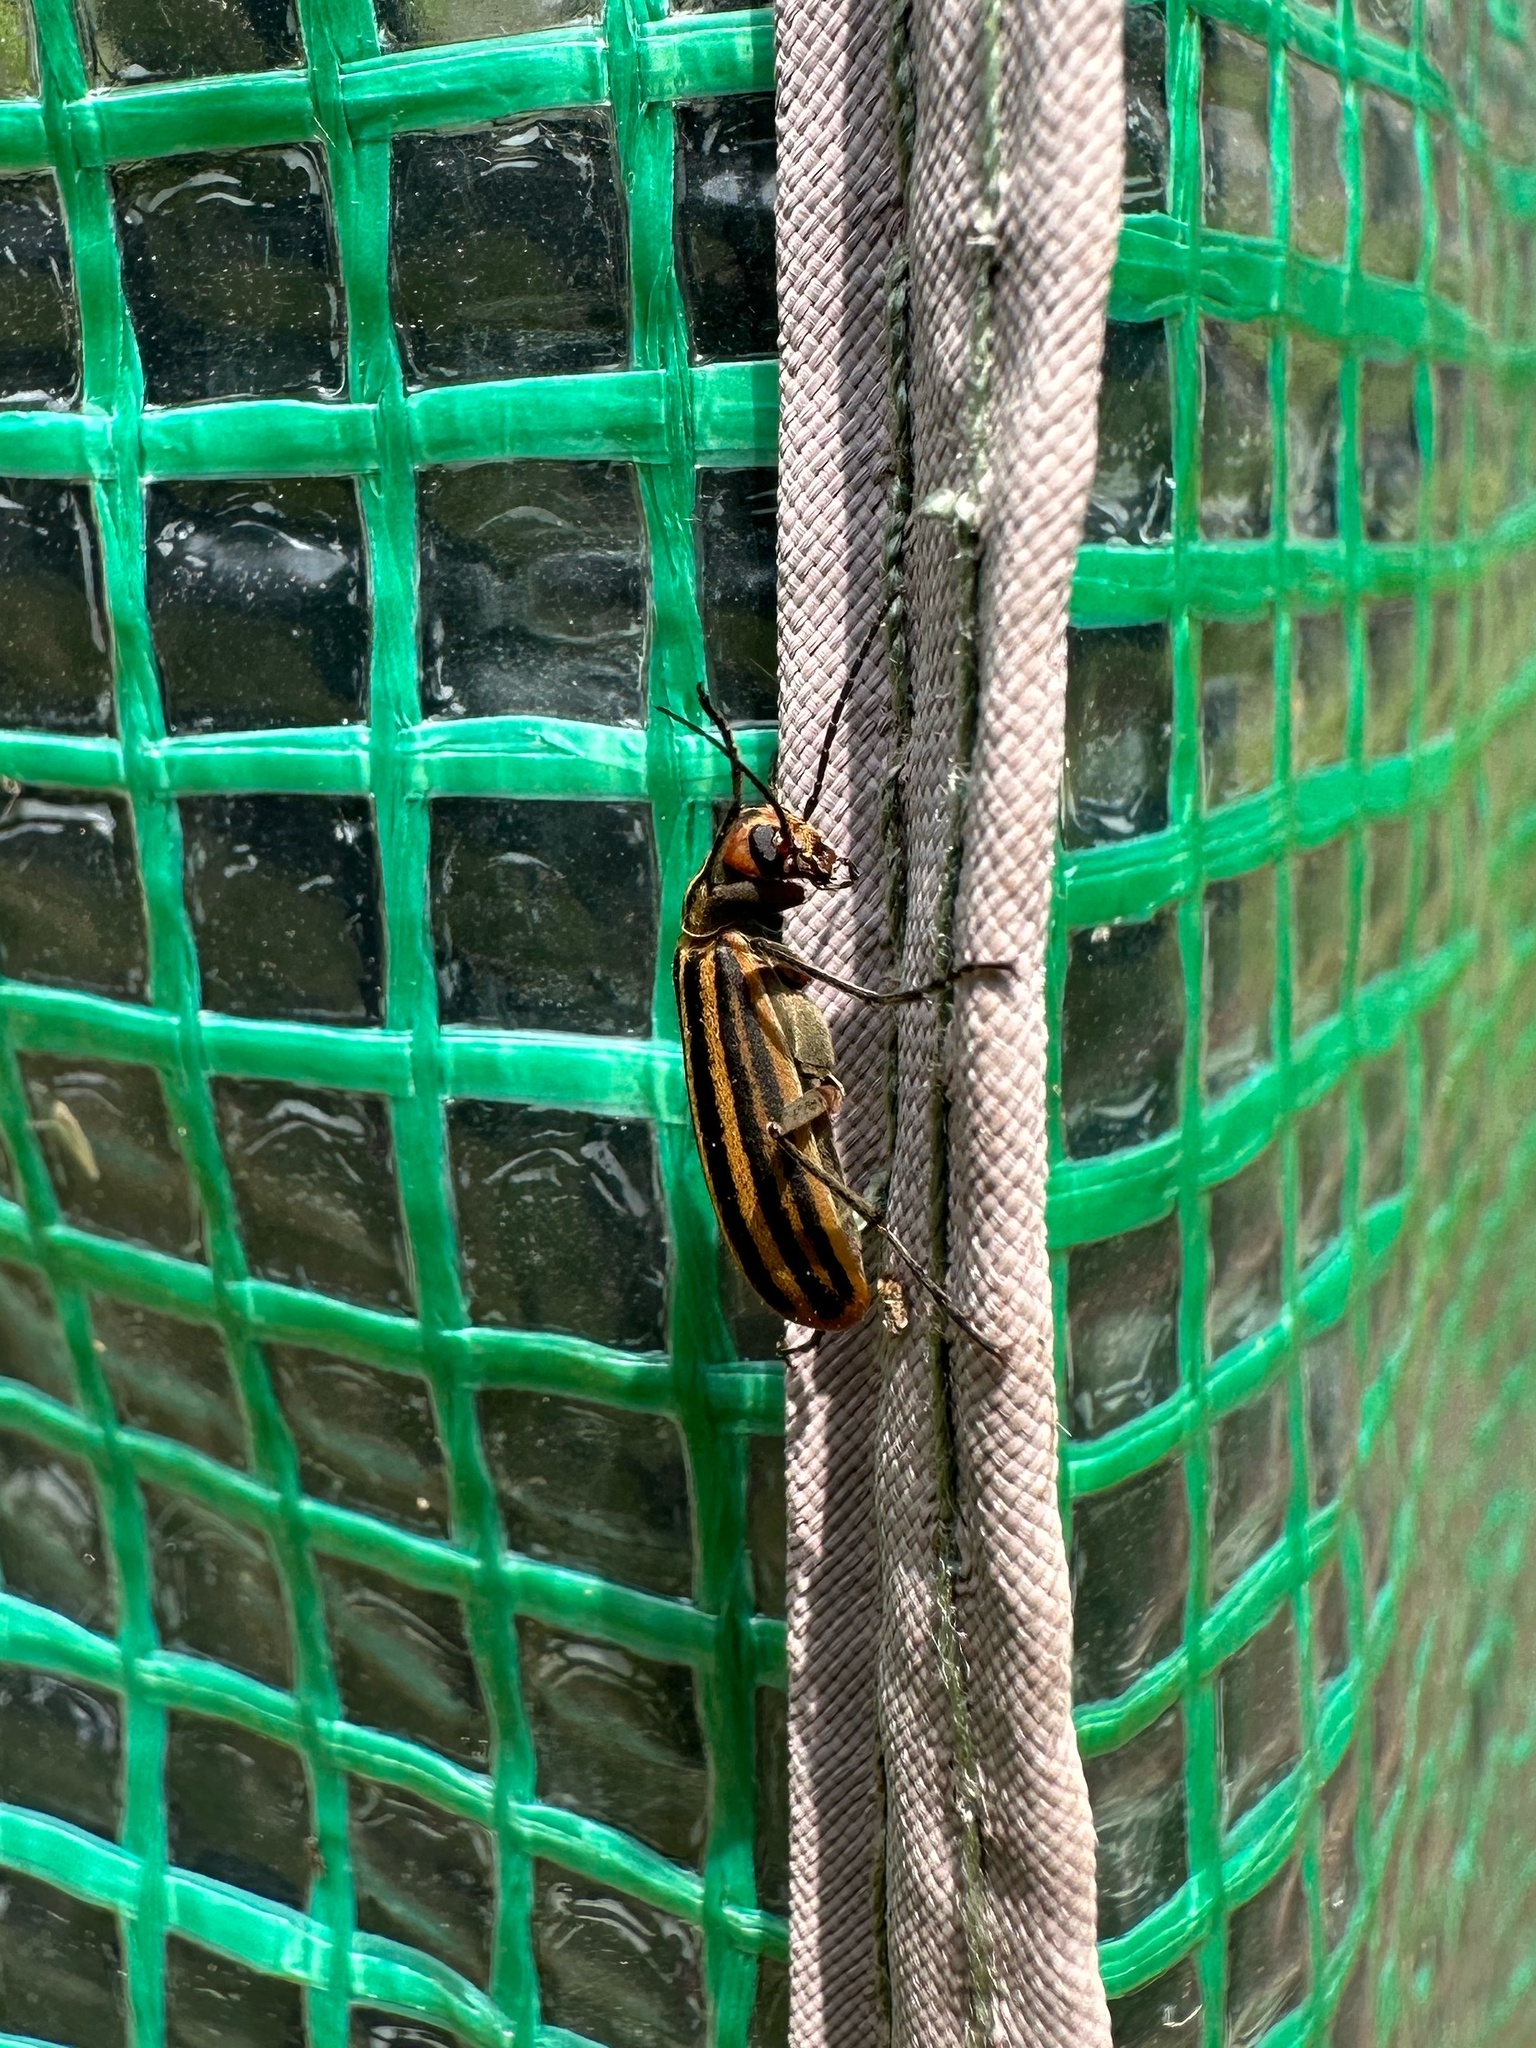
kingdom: Animalia
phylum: Arthropoda
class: Insecta
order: Coleoptera
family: Meloidae
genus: Epicauta
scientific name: Epicauta vittata
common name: Old-fashioned potato beetle
